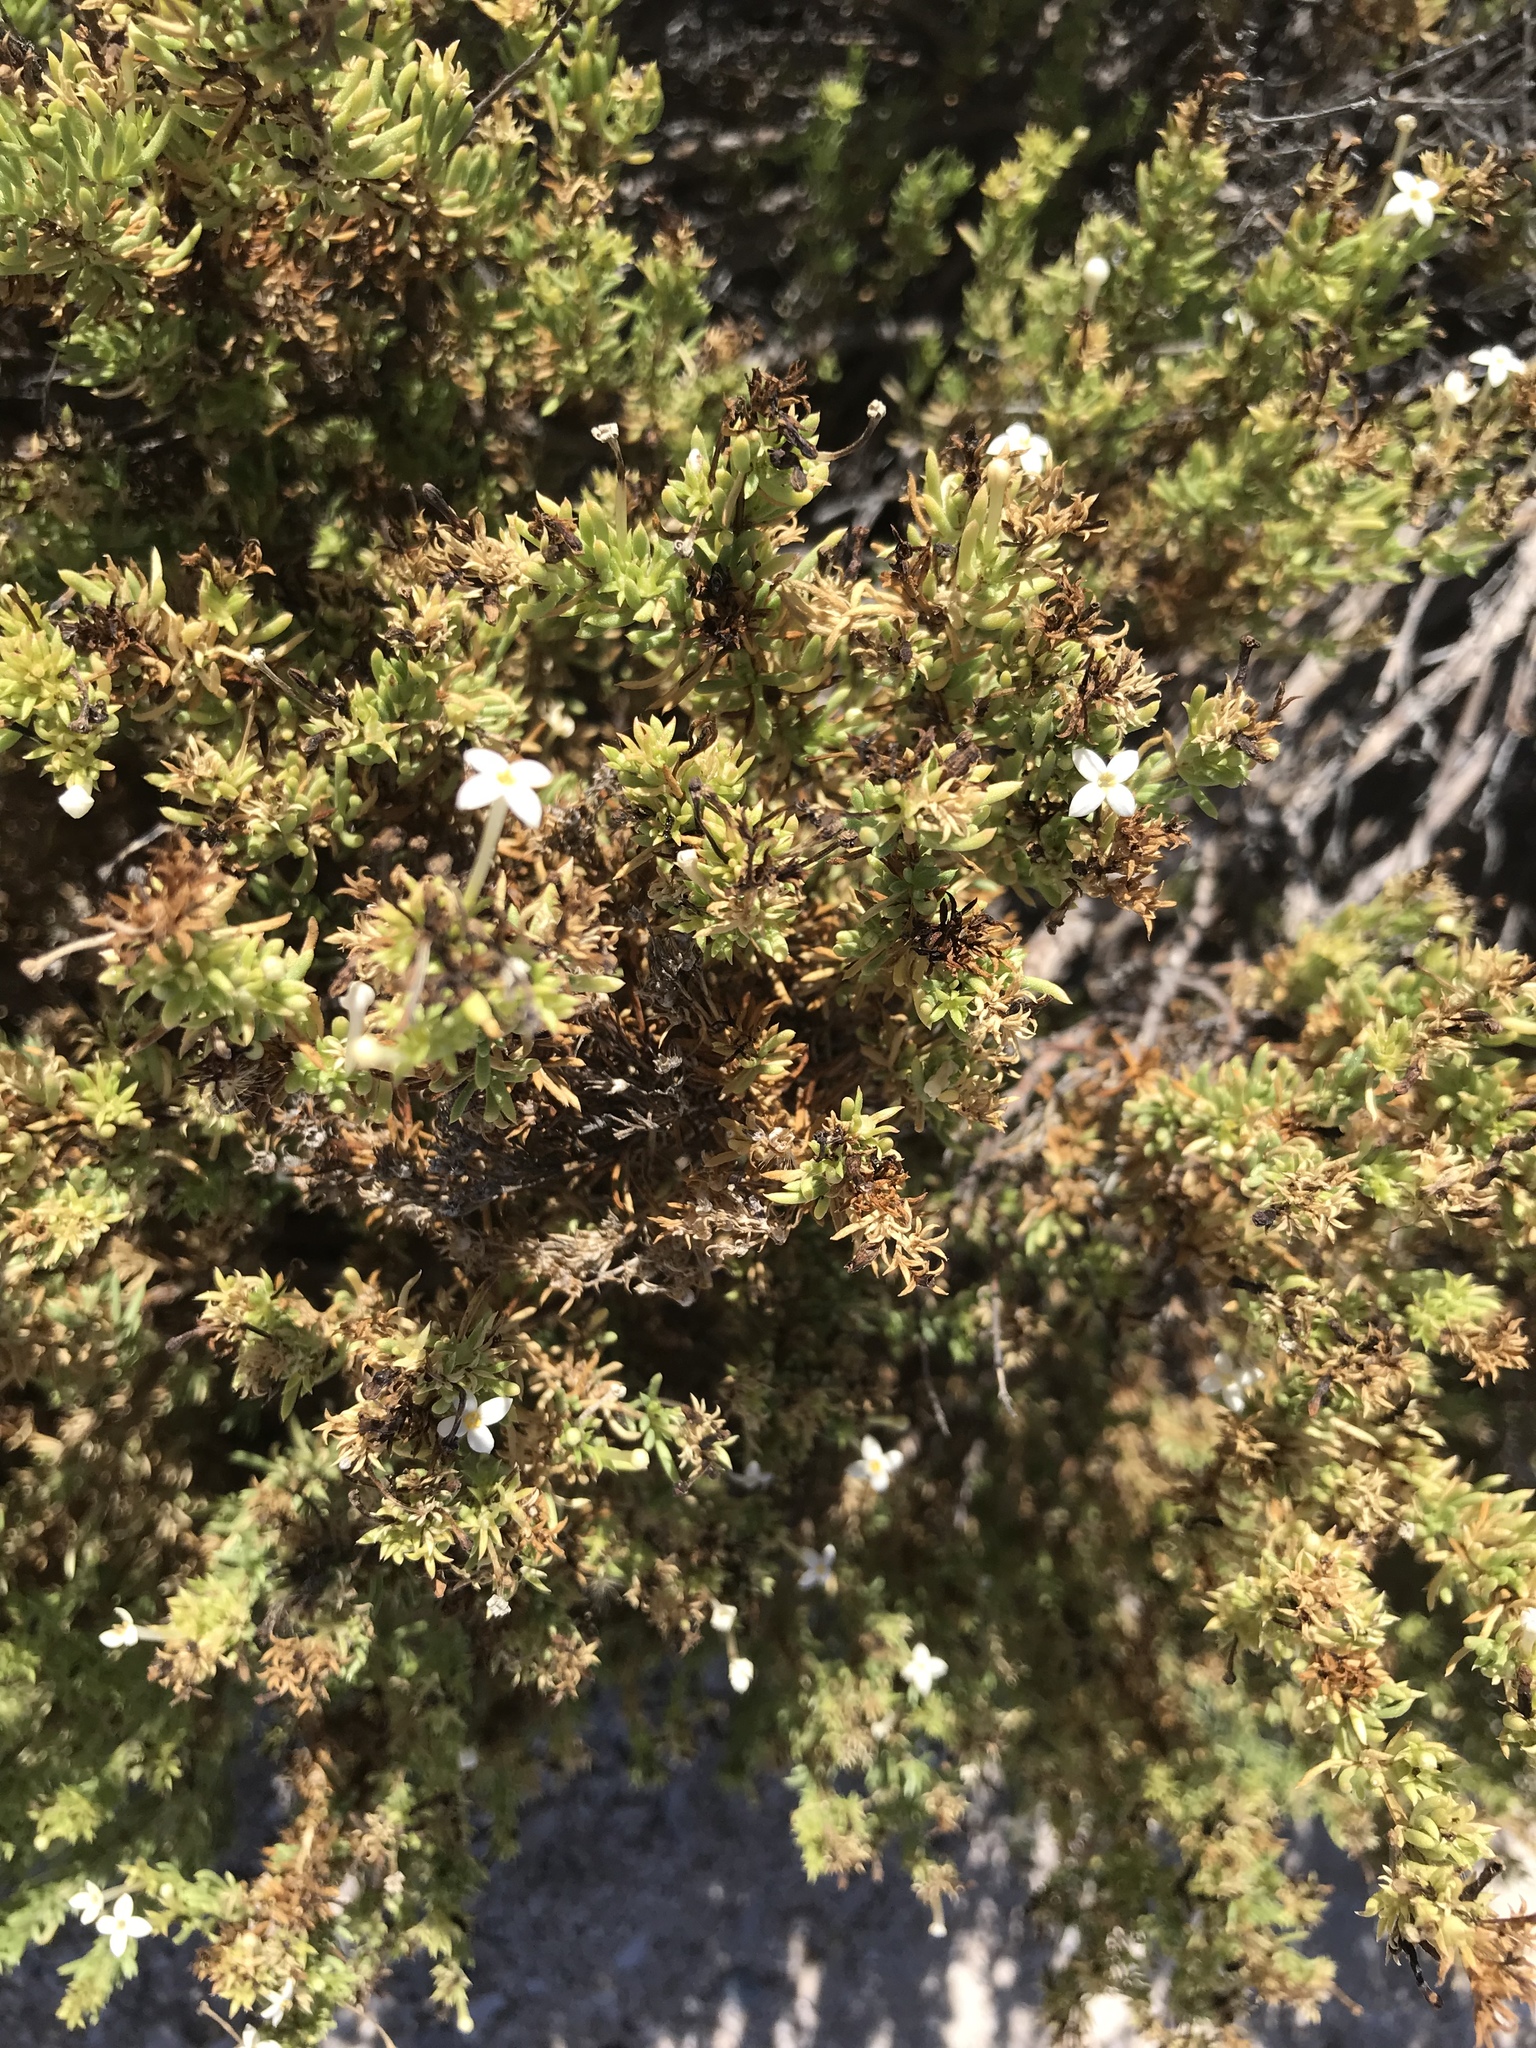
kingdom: Plantae
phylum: Tracheophyta
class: Magnoliopsida
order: Gentianales
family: Rubiaceae
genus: Stenotis
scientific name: Stenotis mucronata
